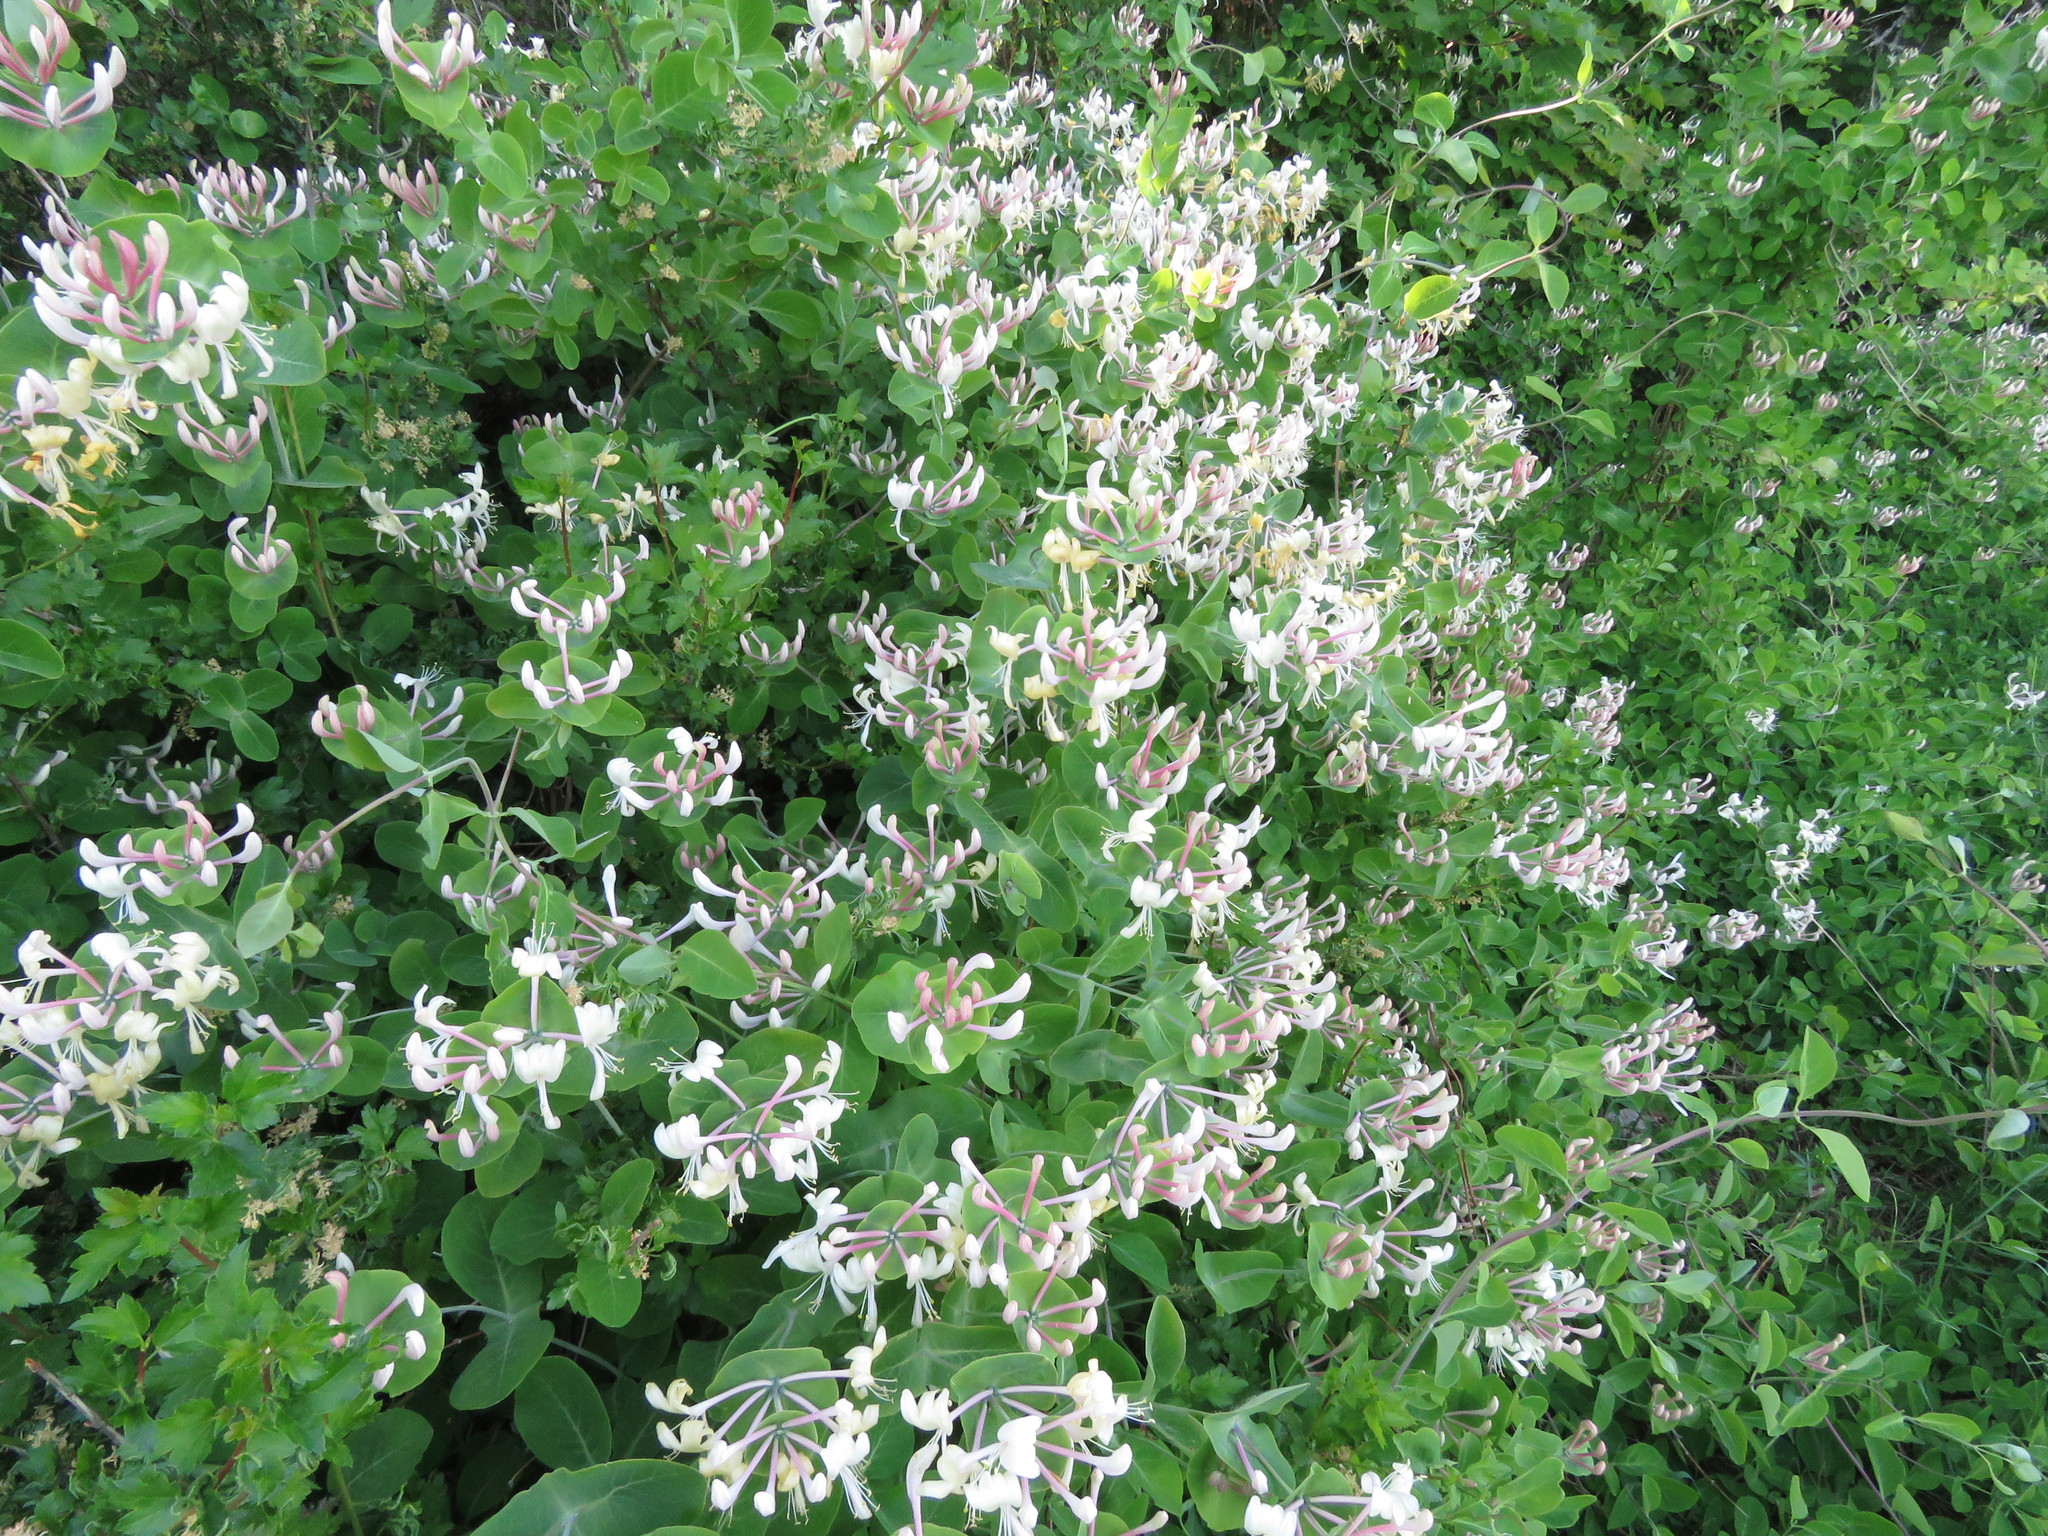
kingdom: Plantae
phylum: Tracheophyta
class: Magnoliopsida
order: Dipsacales
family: Caprifoliaceae
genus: Lonicera
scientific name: Lonicera caprifolium
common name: Perfoliate honeysuckle
